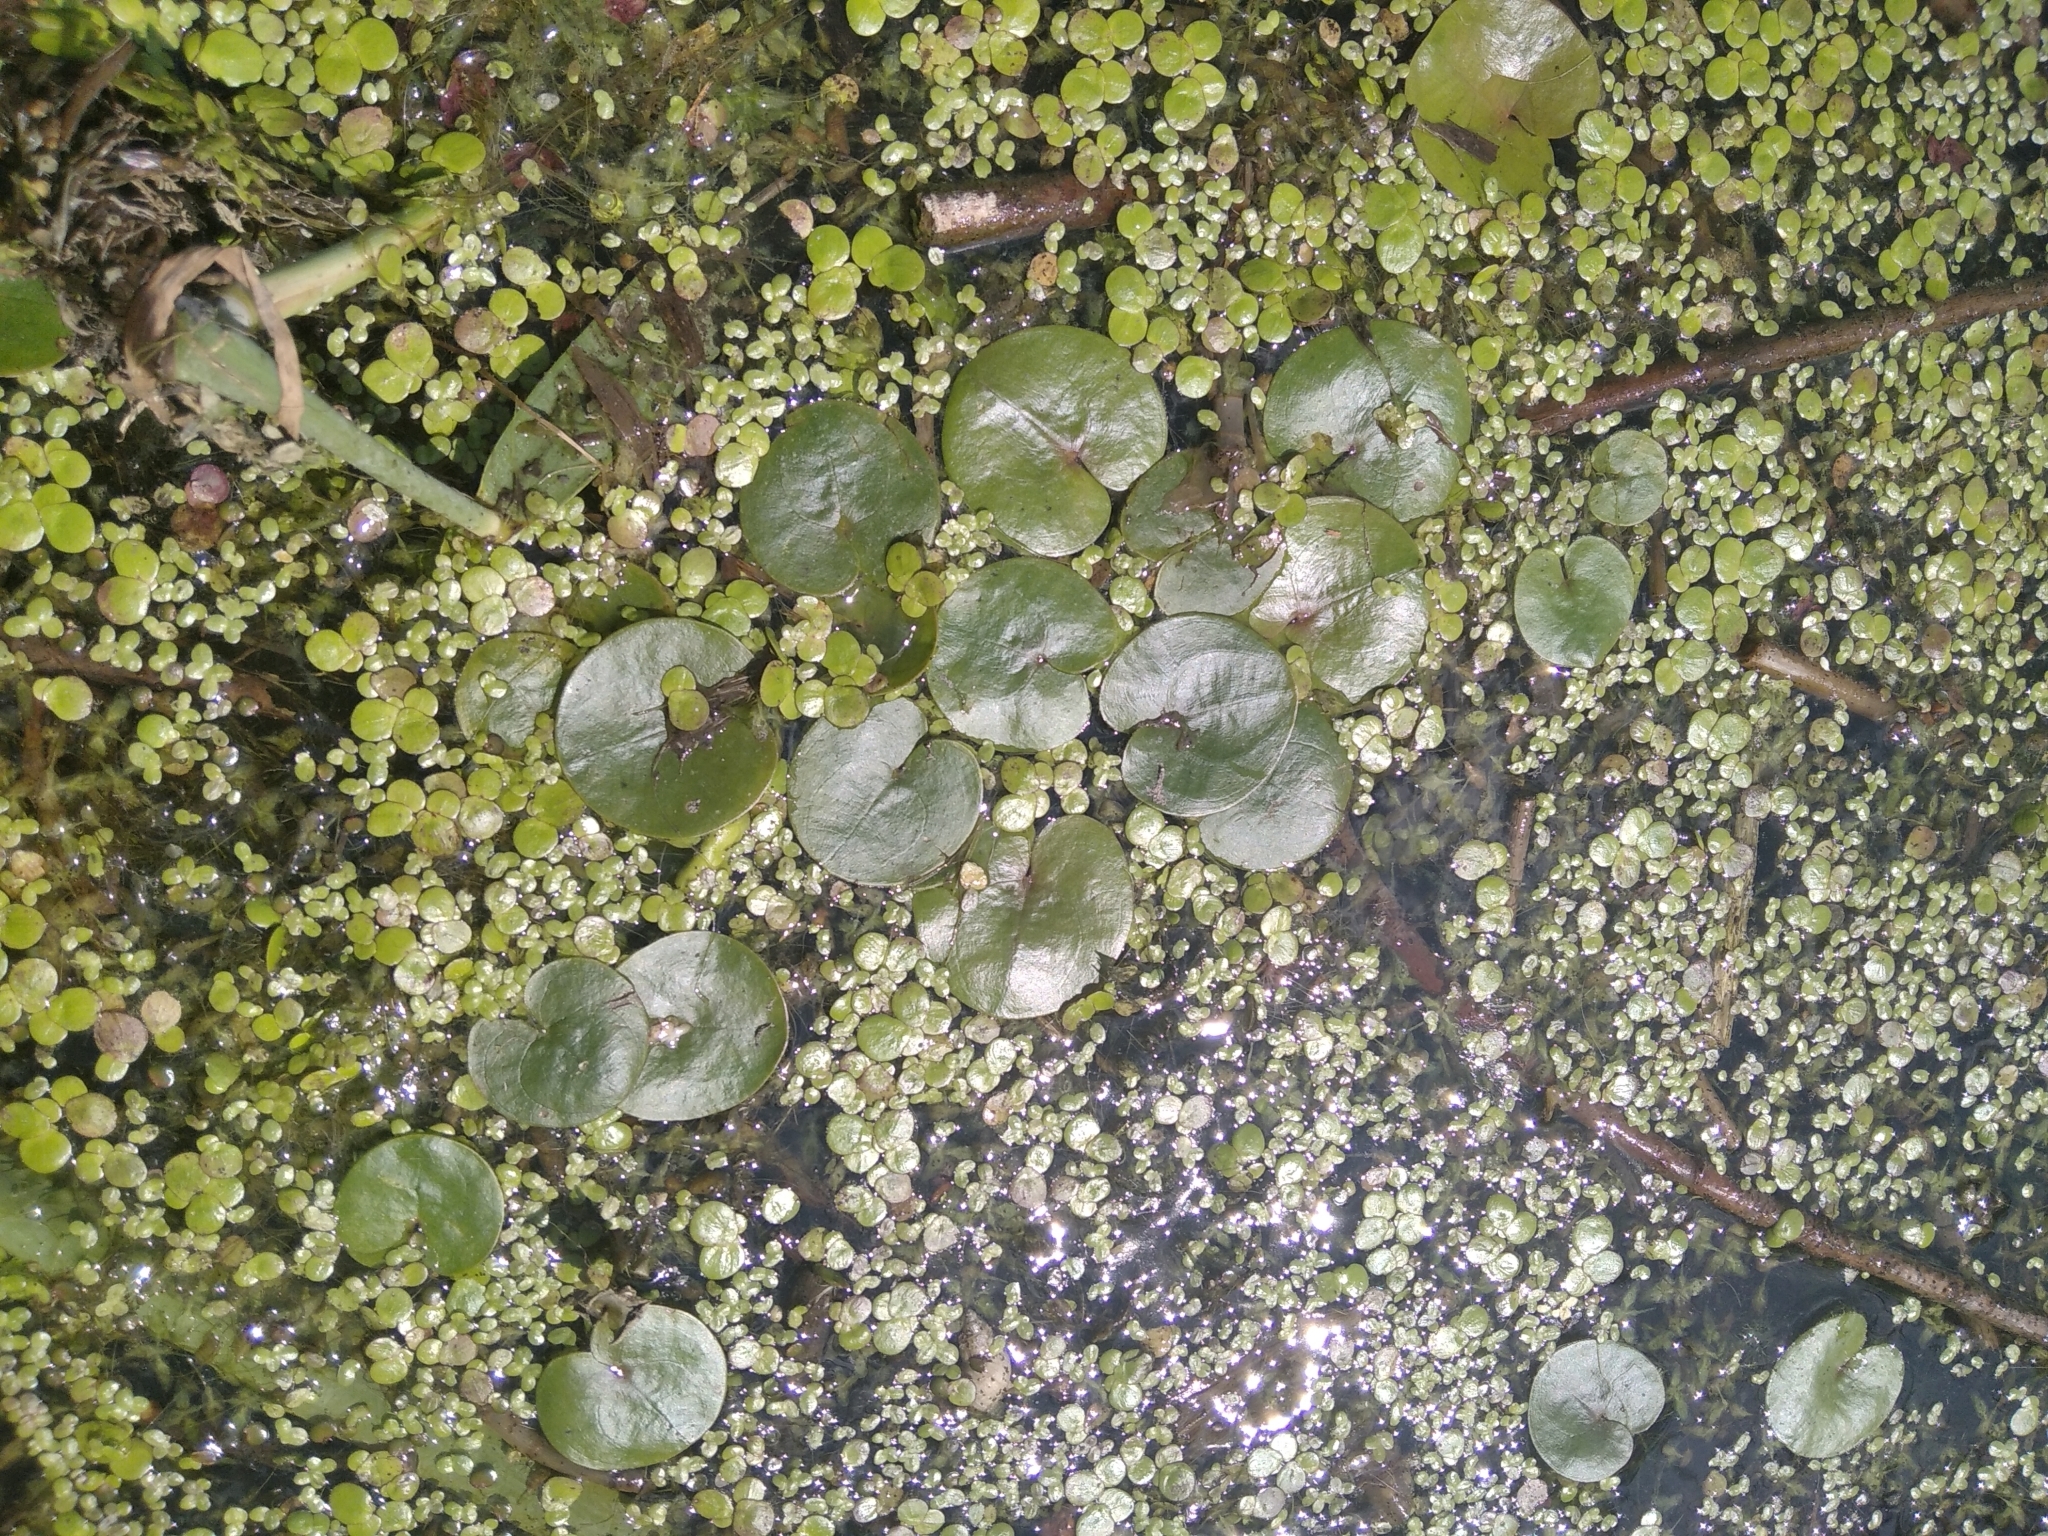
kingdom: Plantae
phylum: Tracheophyta
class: Liliopsida
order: Alismatales
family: Hydrocharitaceae
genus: Hydrocharis
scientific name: Hydrocharis morsus-ranae
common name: Frogbit
